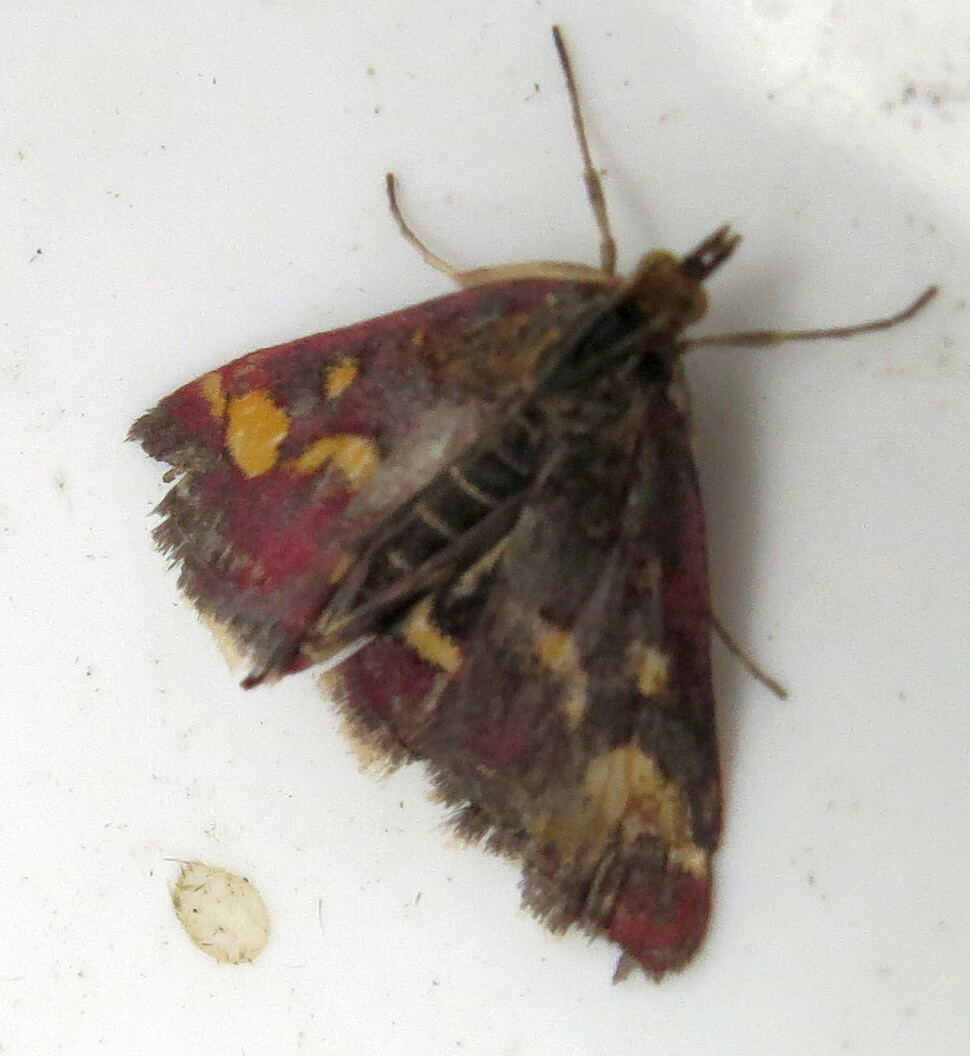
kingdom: Animalia
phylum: Arthropoda
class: Insecta
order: Lepidoptera
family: Crambidae
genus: Pyrausta
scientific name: Pyrausta purpuralis
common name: Common purple & gold
